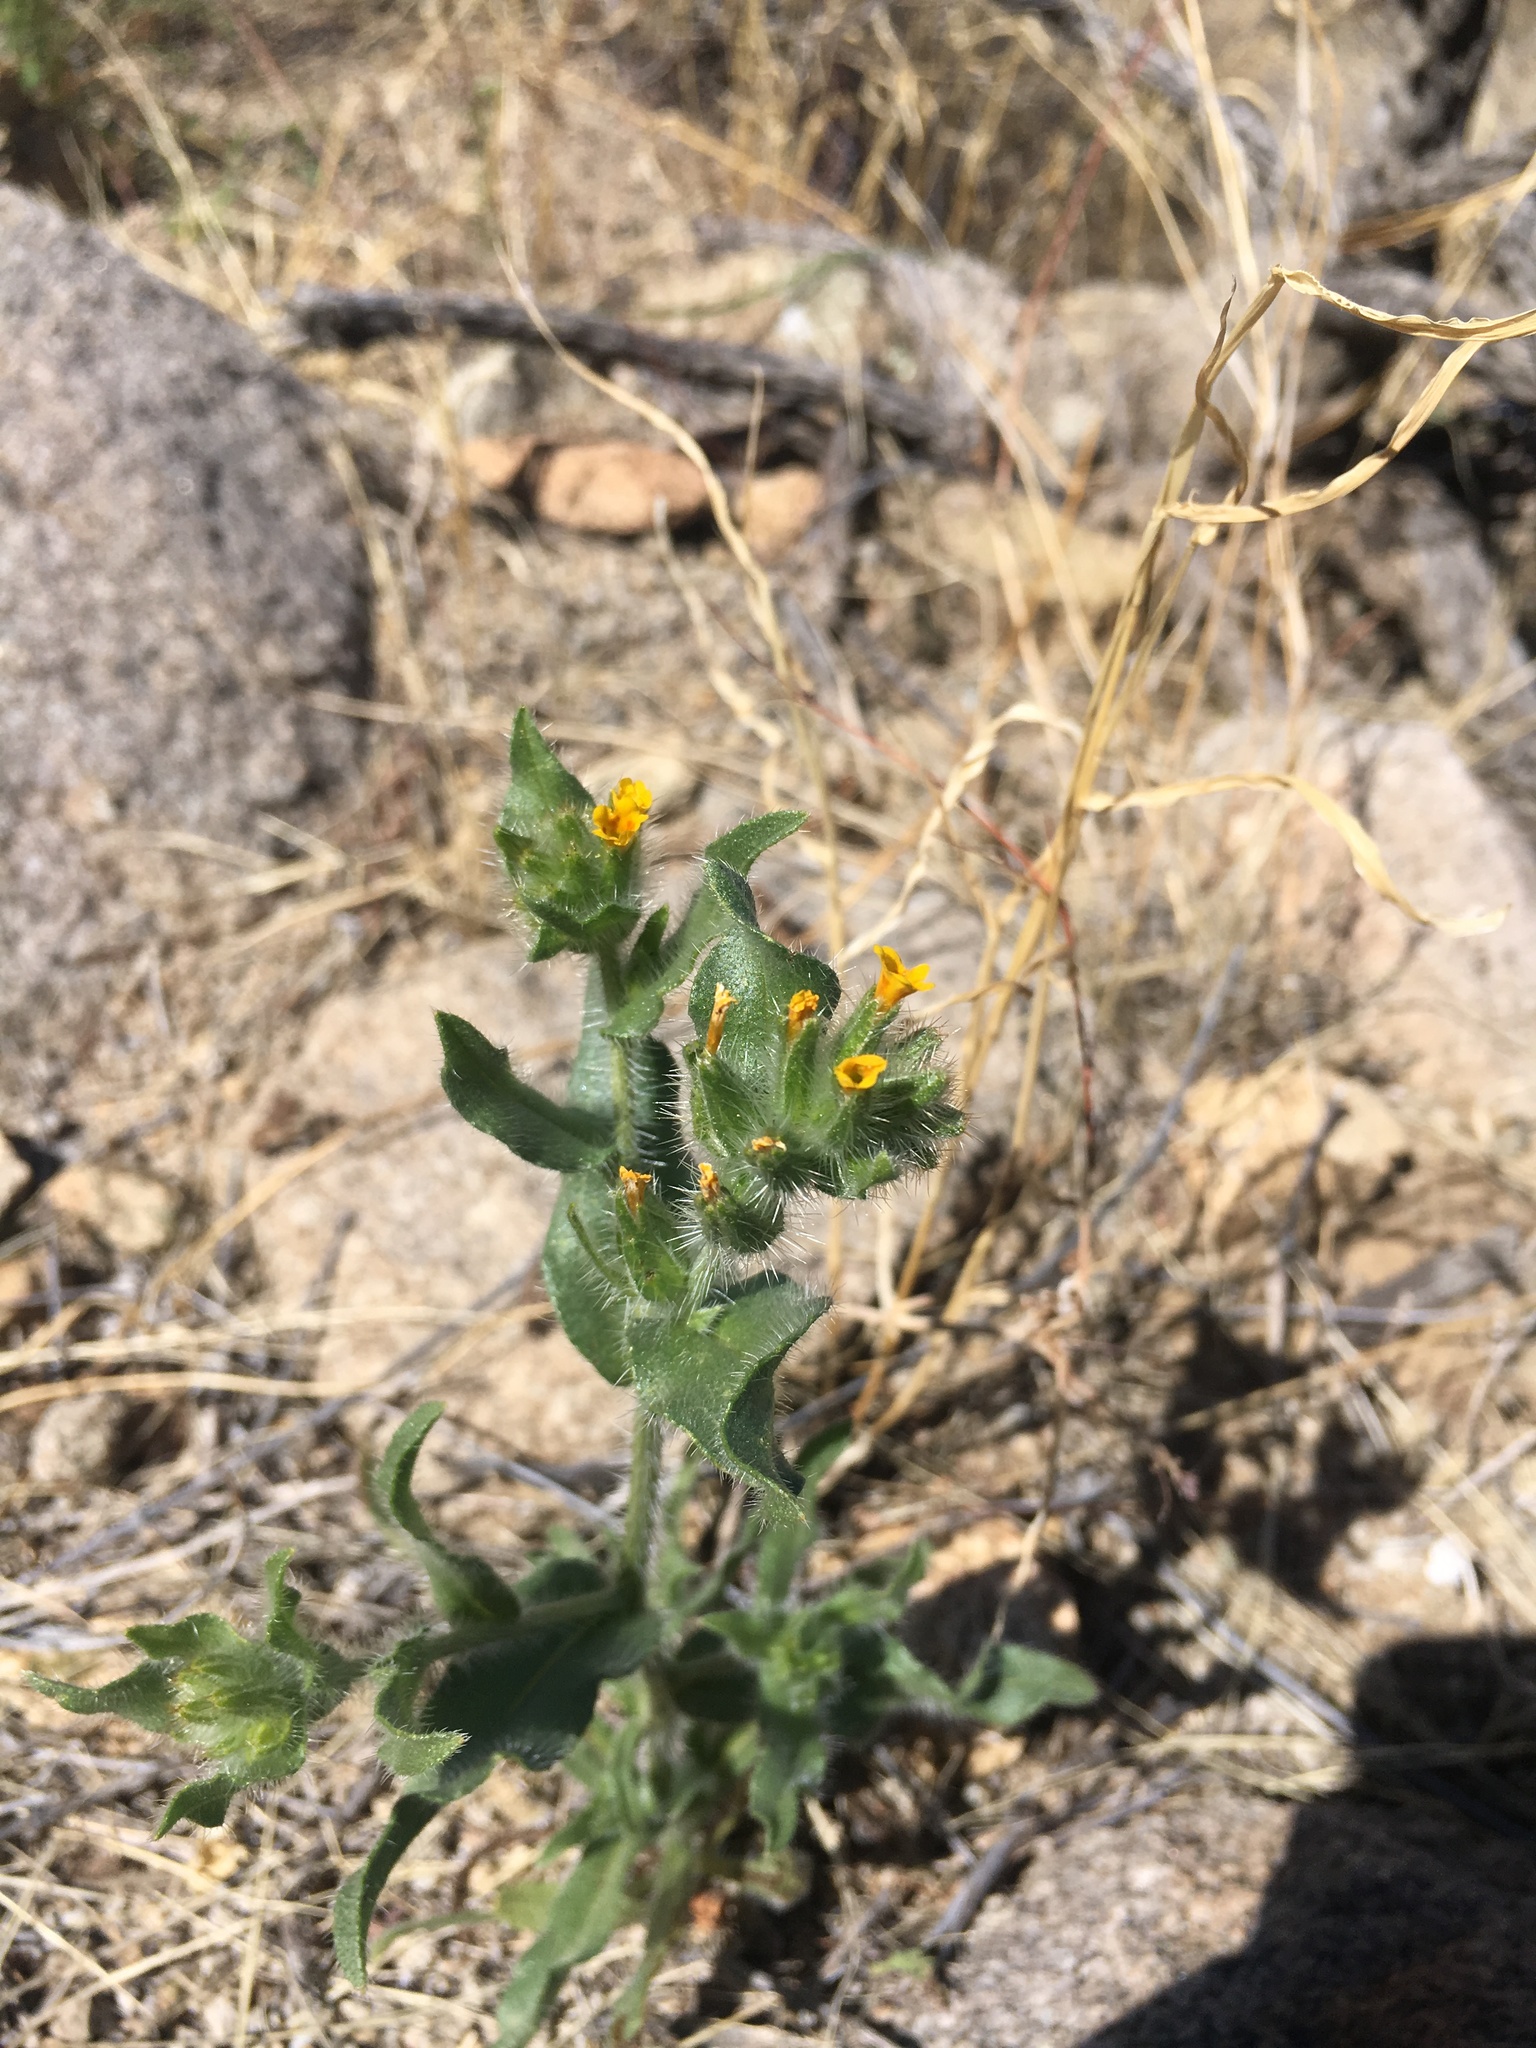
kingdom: Plantae
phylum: Tracheophyta
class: Magnoliopsida
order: Boraginales
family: Boraginaceae
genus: Amsinckia
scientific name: Amsinckia tessellata
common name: Tessellate fiddleneck
